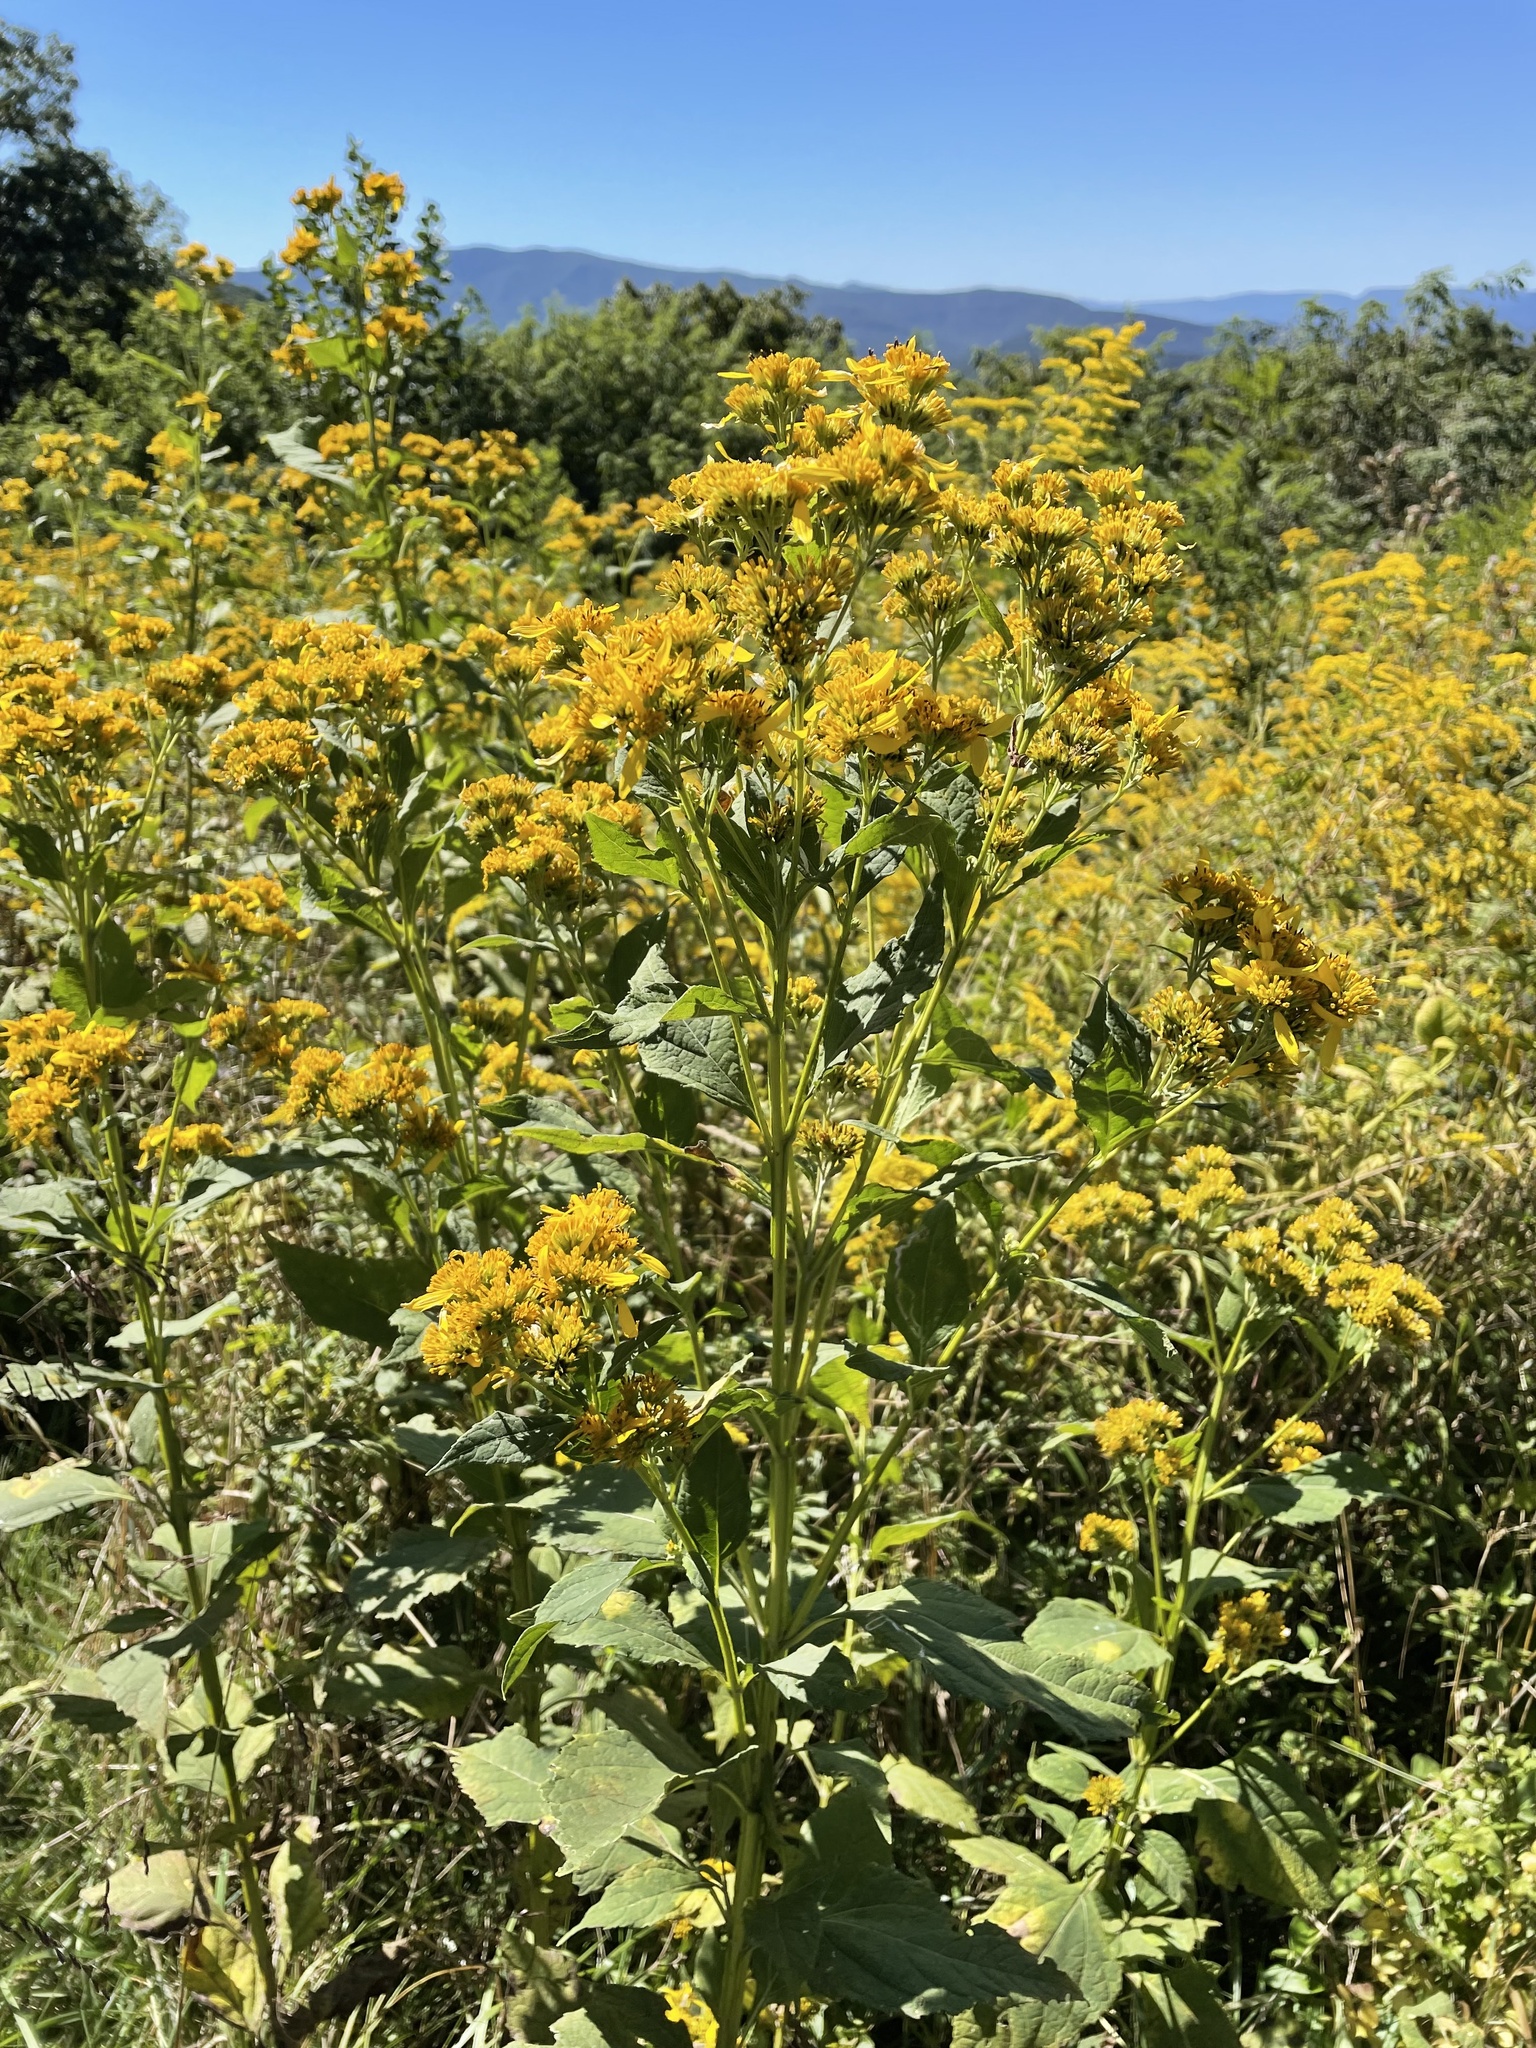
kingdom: Plantae
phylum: Tracheophyta
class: Magnoliopsida
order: Asterales
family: Asteraceae
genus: Verbesina
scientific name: Verbesina occidentalis
